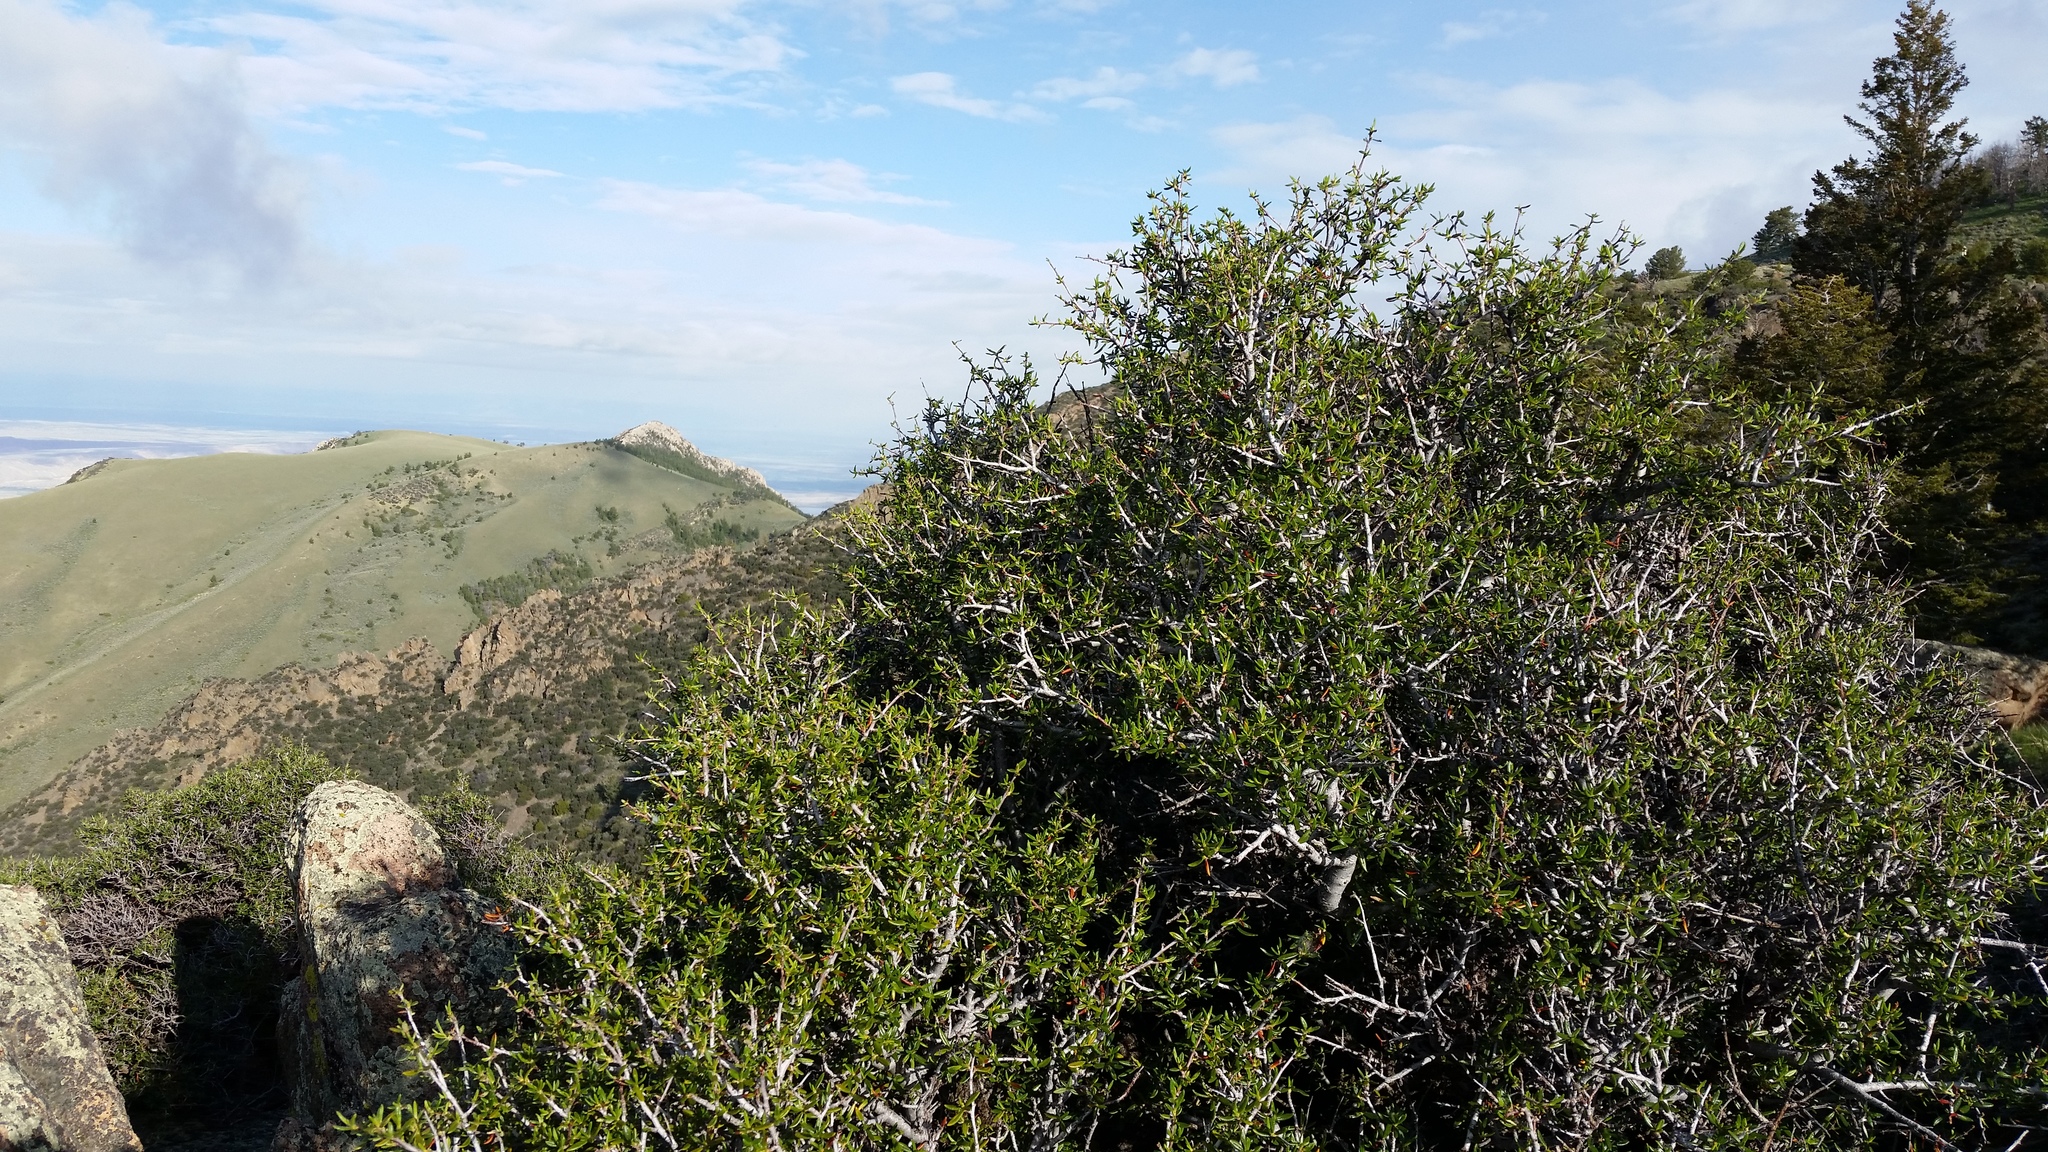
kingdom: Plantae
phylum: Tracheophyta
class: Magnoliopsida
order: Rosales
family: Rosaceae
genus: Cercocarpus
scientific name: Cercocarpus ledifolius
